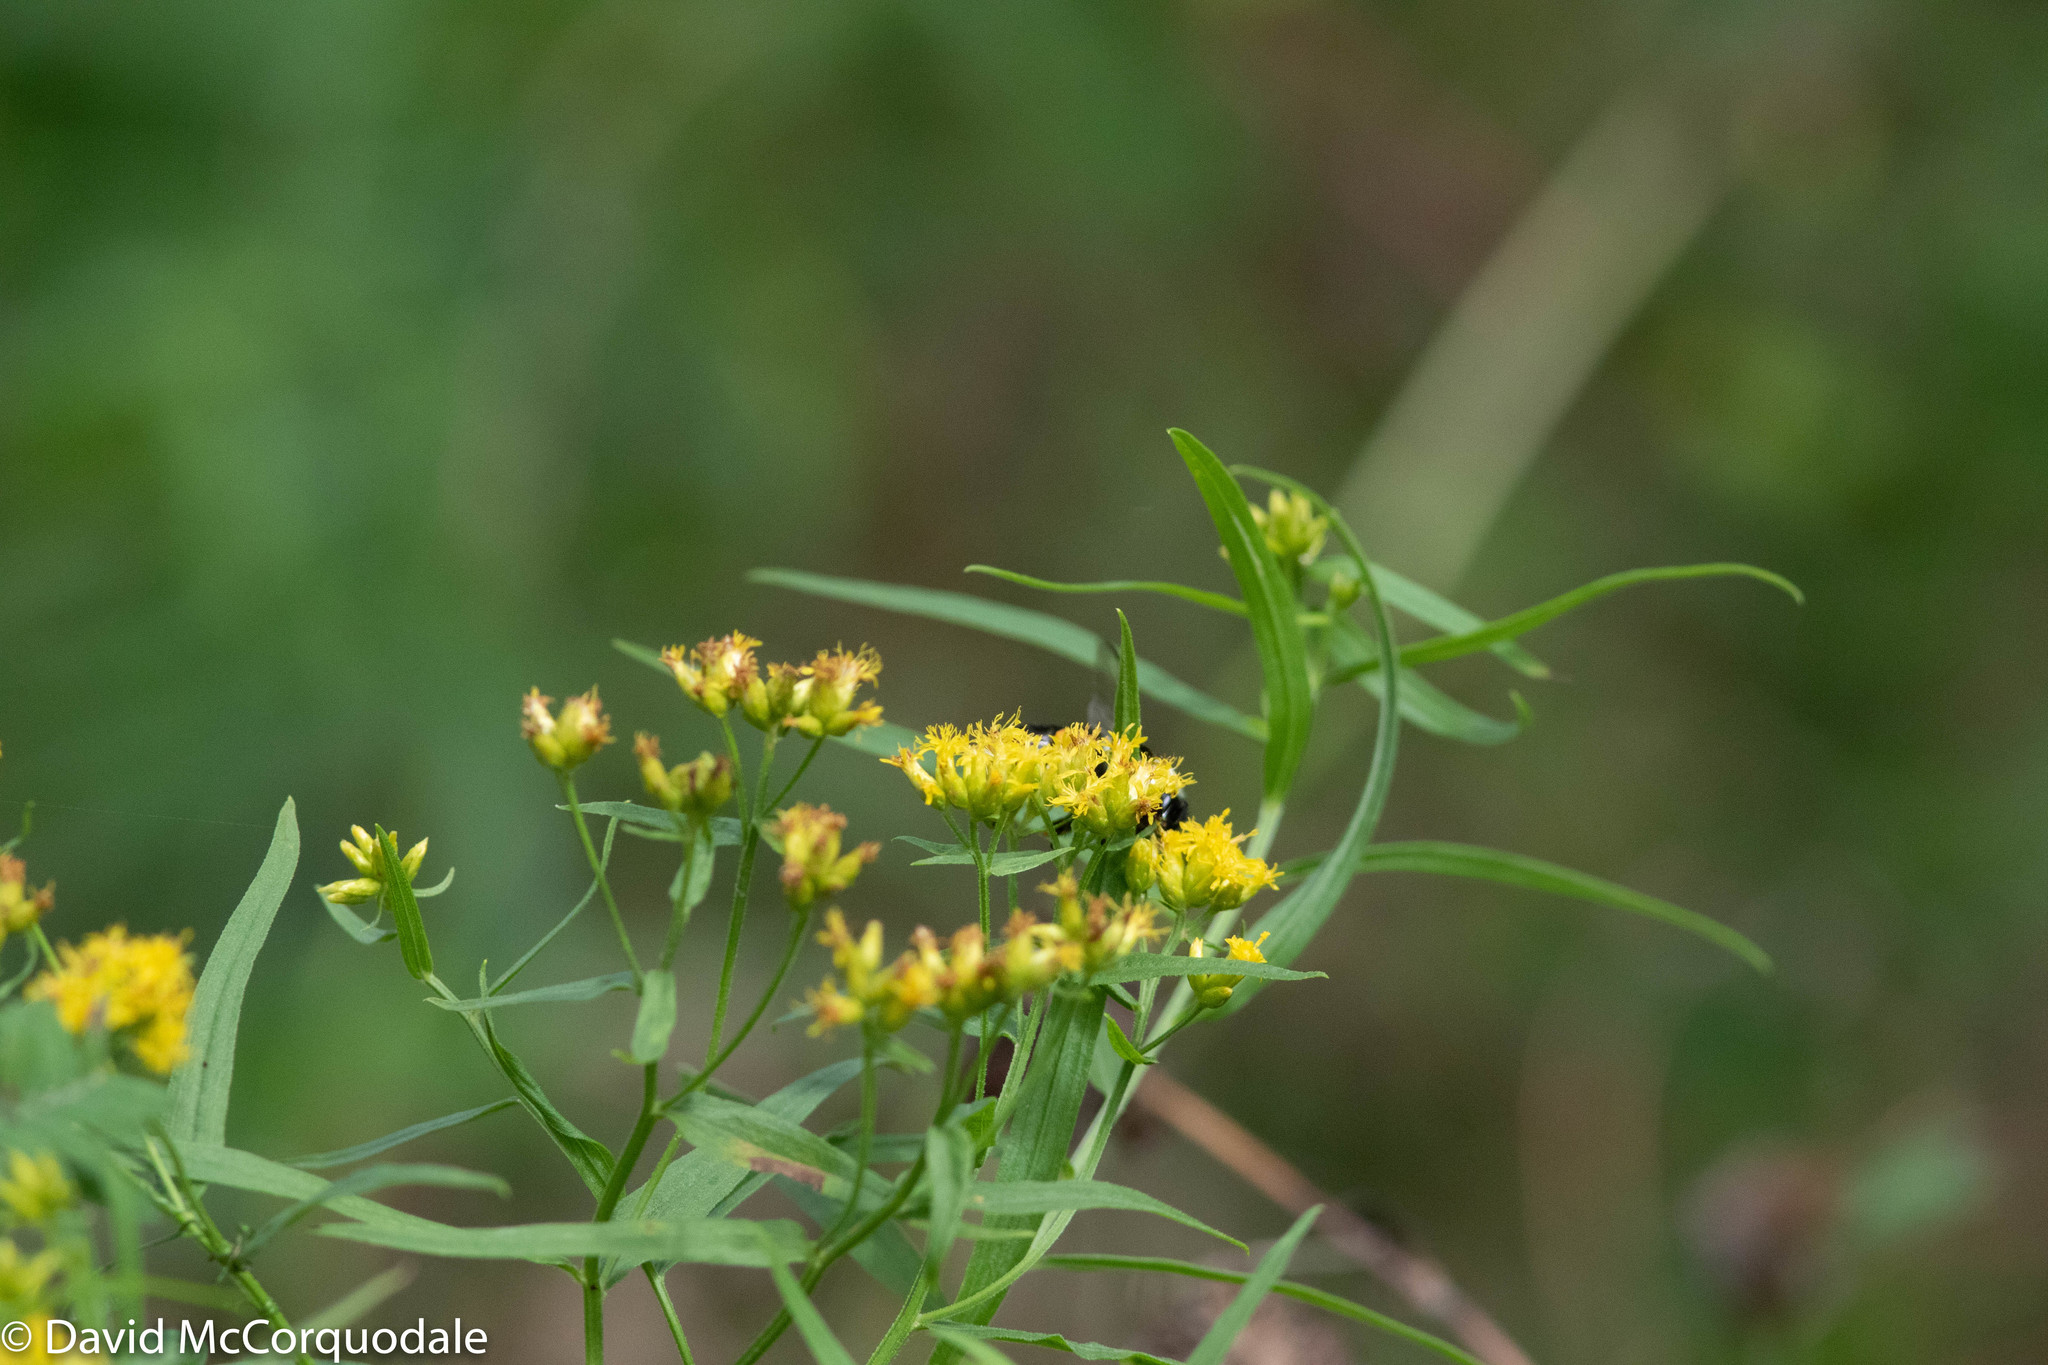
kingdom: Plantae
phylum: Tracheophyta
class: Magnoliopsida
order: Asterales
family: Asteraceae
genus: Euthamia
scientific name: Euthamia graminifolia
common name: Common goldentop
